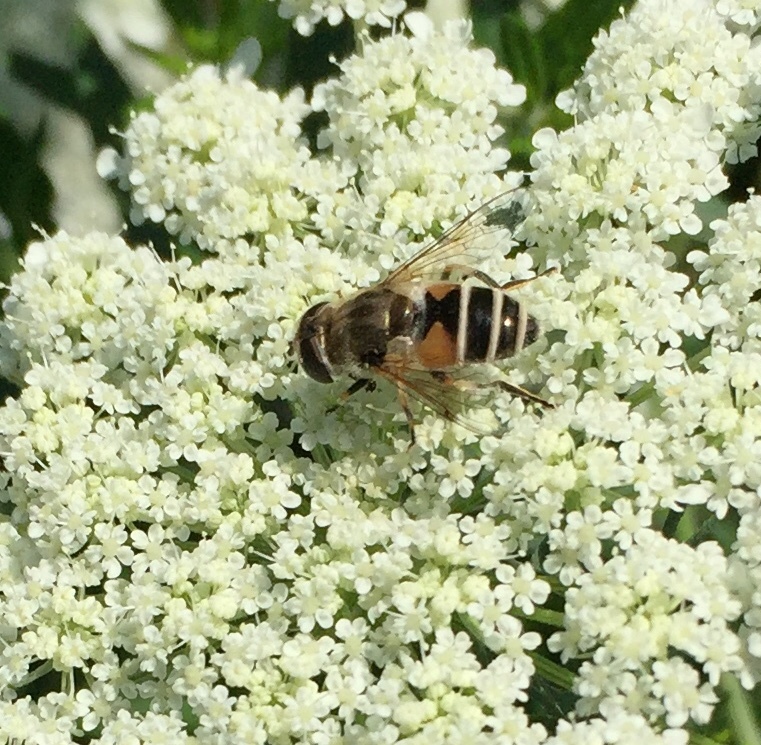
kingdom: Animalia
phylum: Arthropoda
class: Insecta
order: Diptera
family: Syrphidae
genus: Eristalis
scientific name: Eristalis arbustorum
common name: Hover fly
